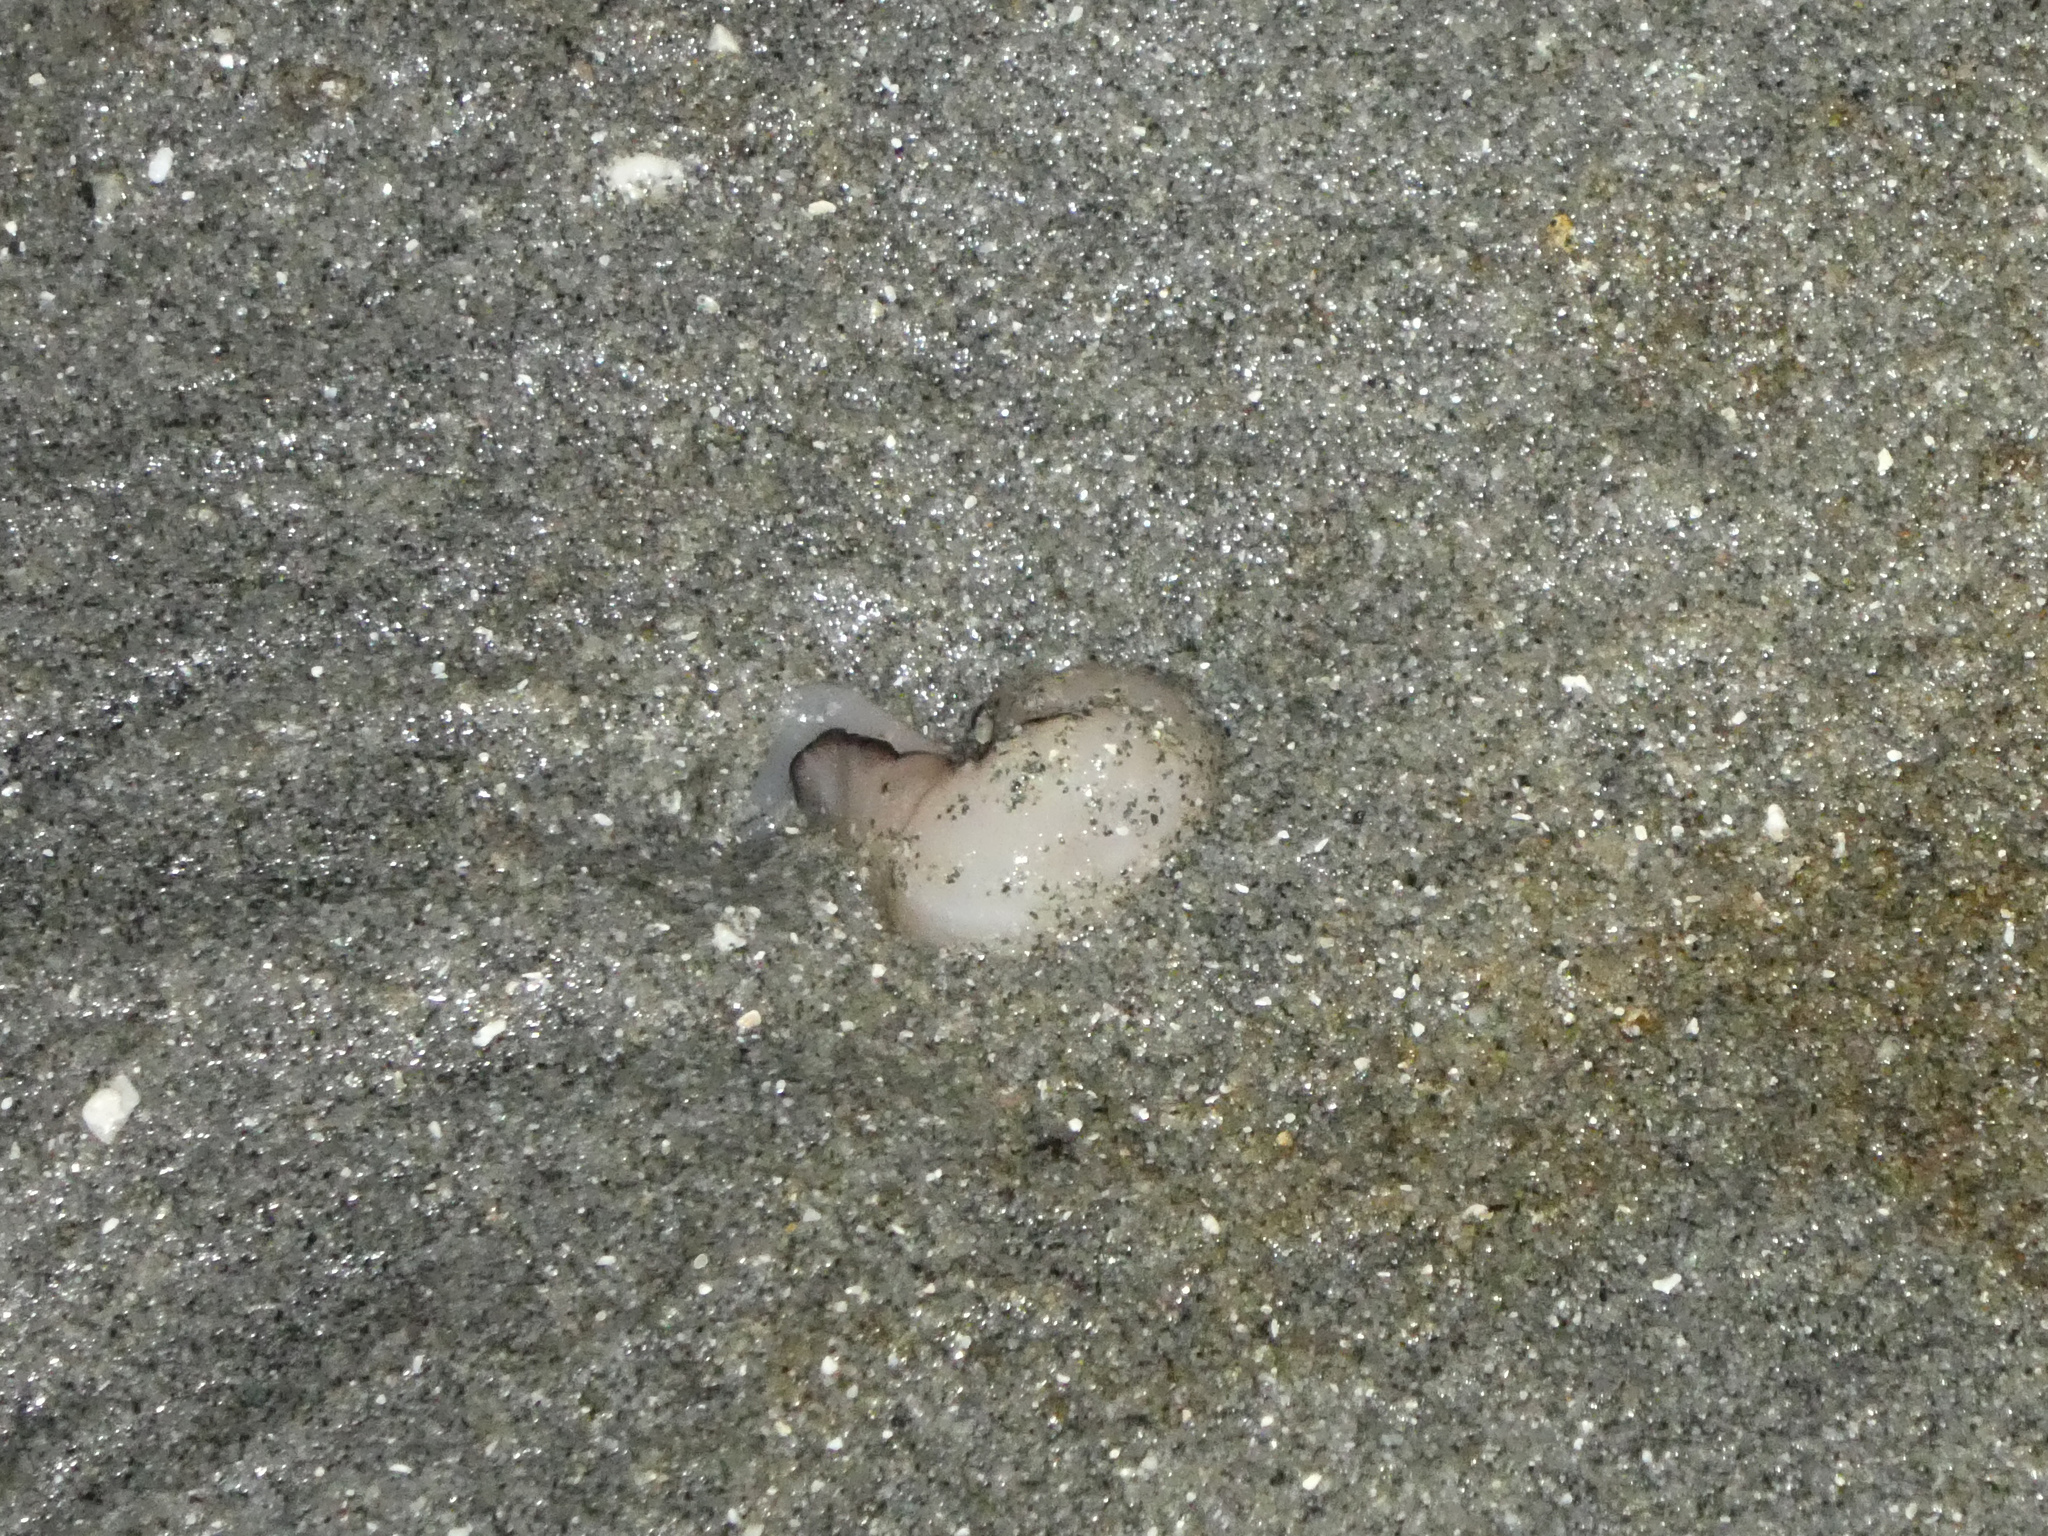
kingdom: Animalia
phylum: Mollusca
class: Gastropoda
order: Littorinimorpha
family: Naticidae
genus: Neverita
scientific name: Neverita lewisii
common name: Lewis' moonsnail
